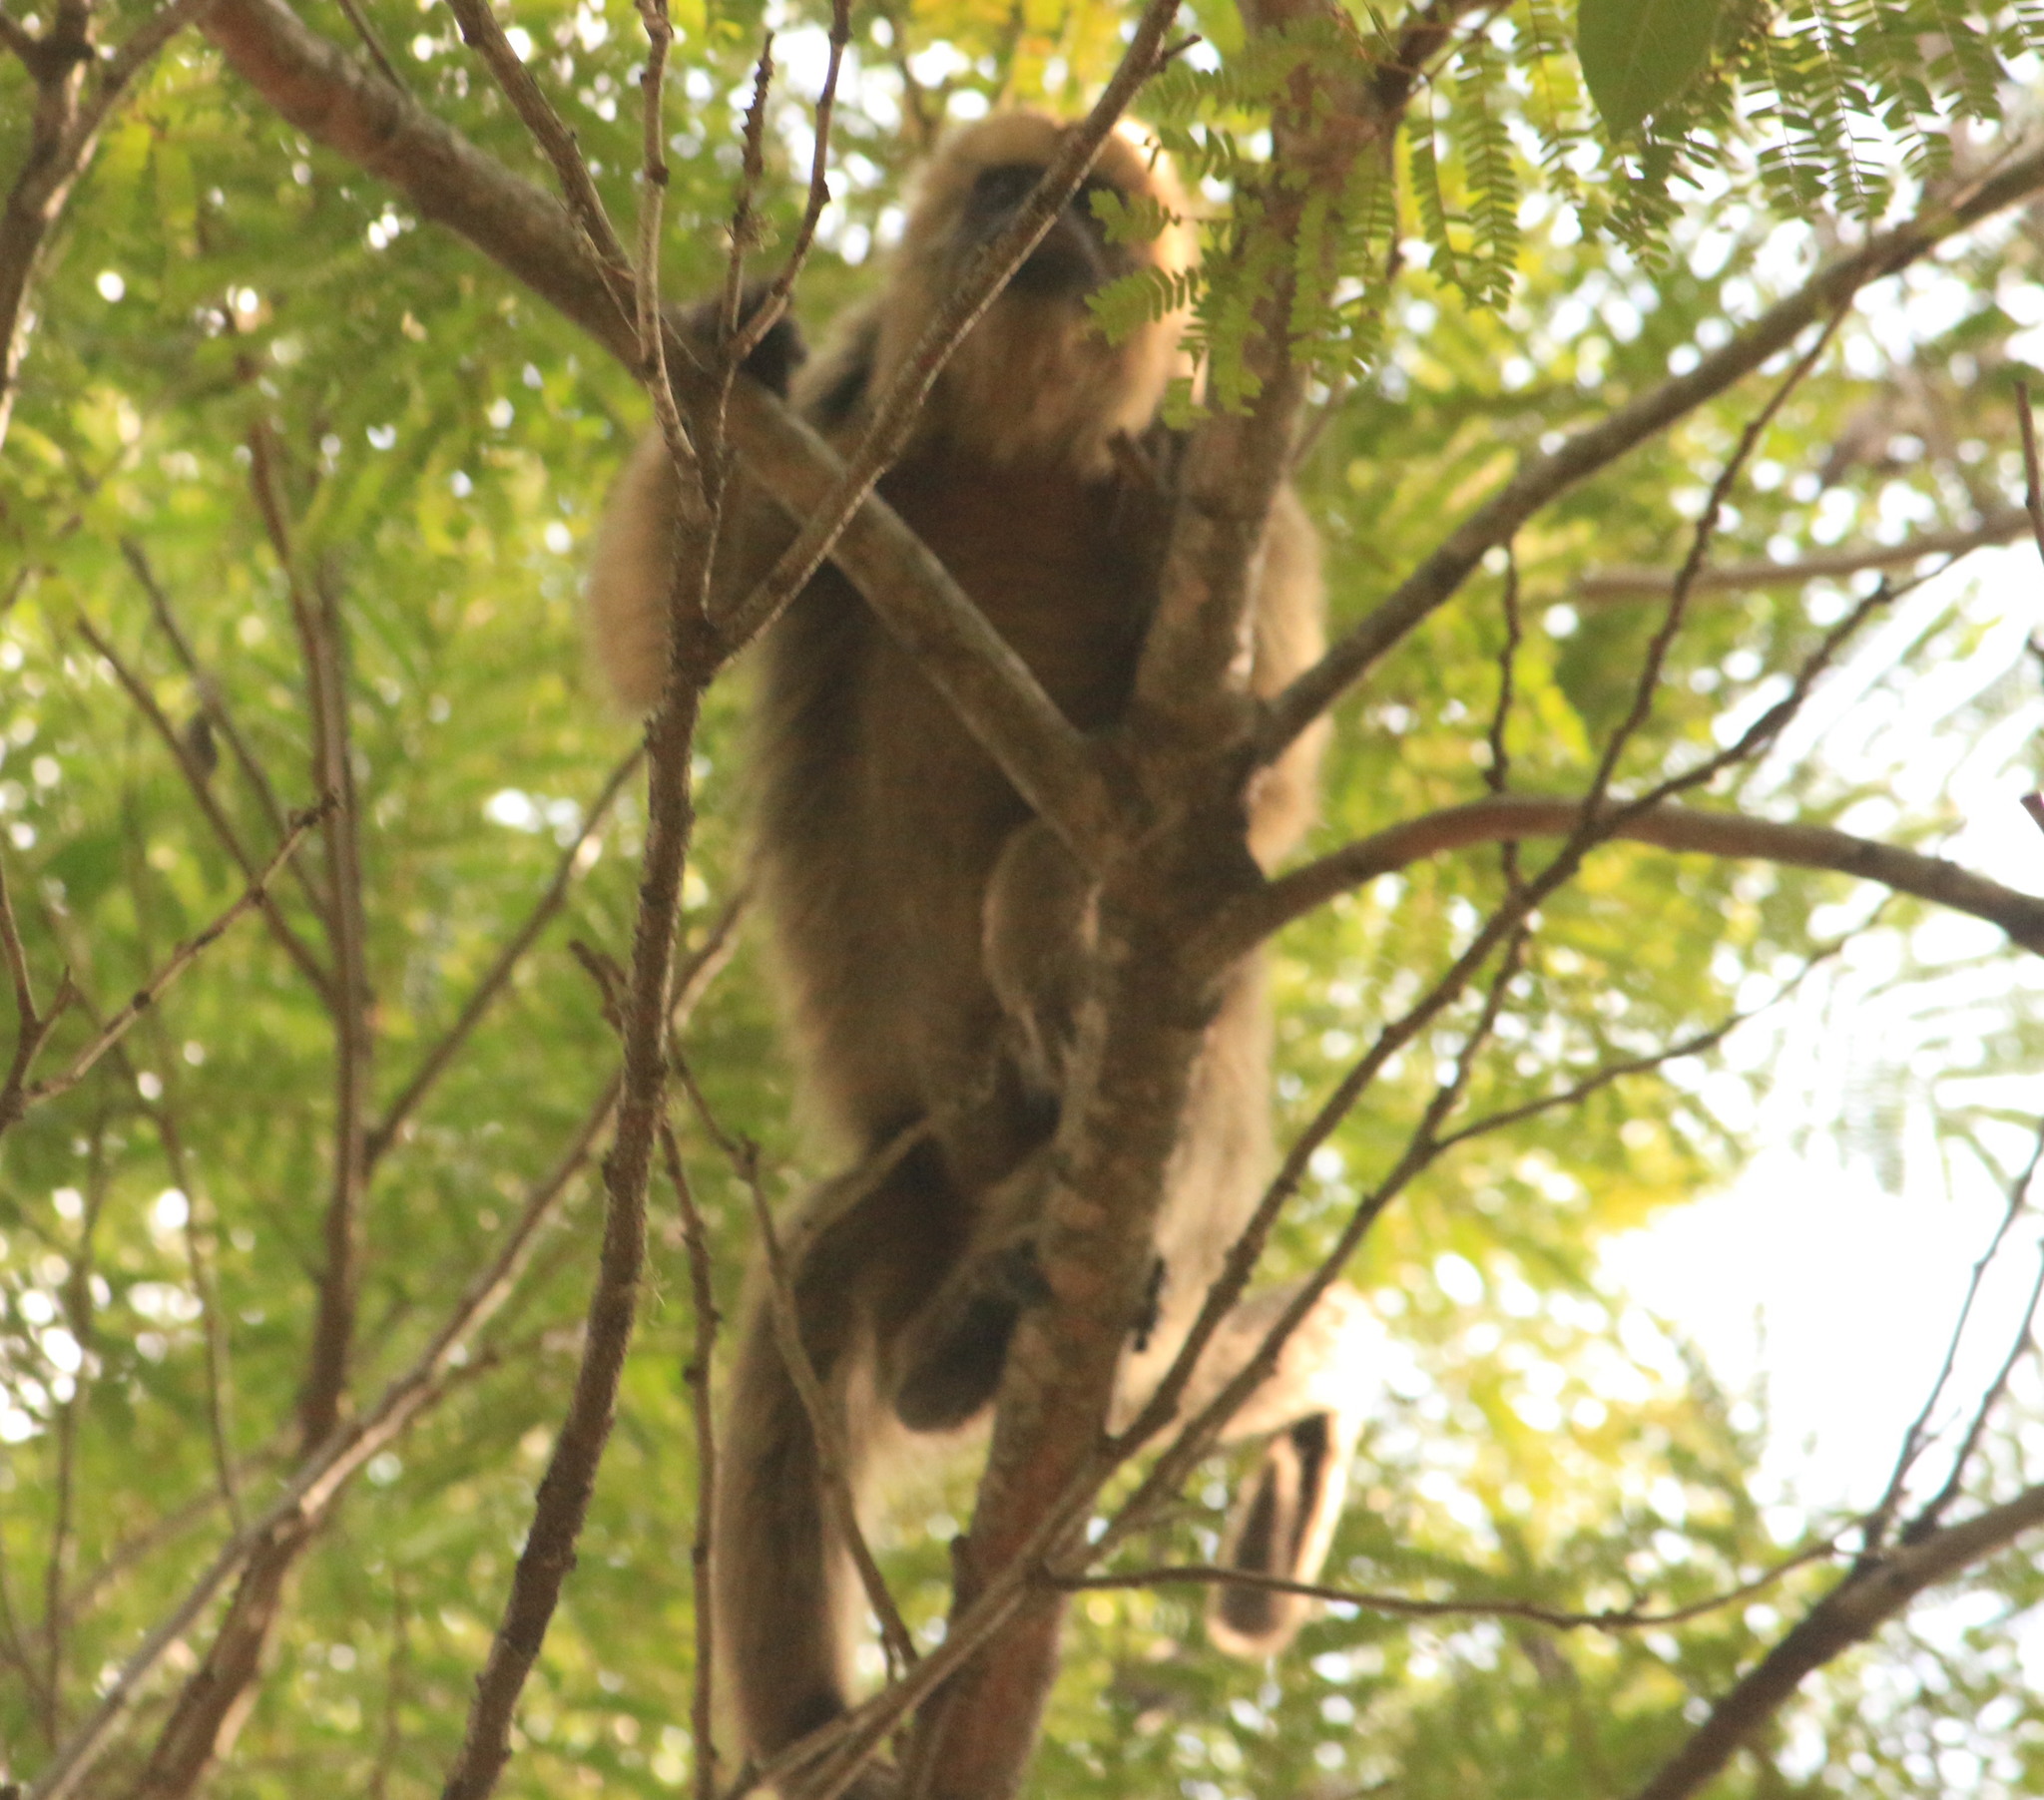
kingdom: Animalia
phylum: Chordata
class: Mammalia
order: Primates
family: Atelidae
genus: Alouatta
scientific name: Alouatta caraya
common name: Black howler
